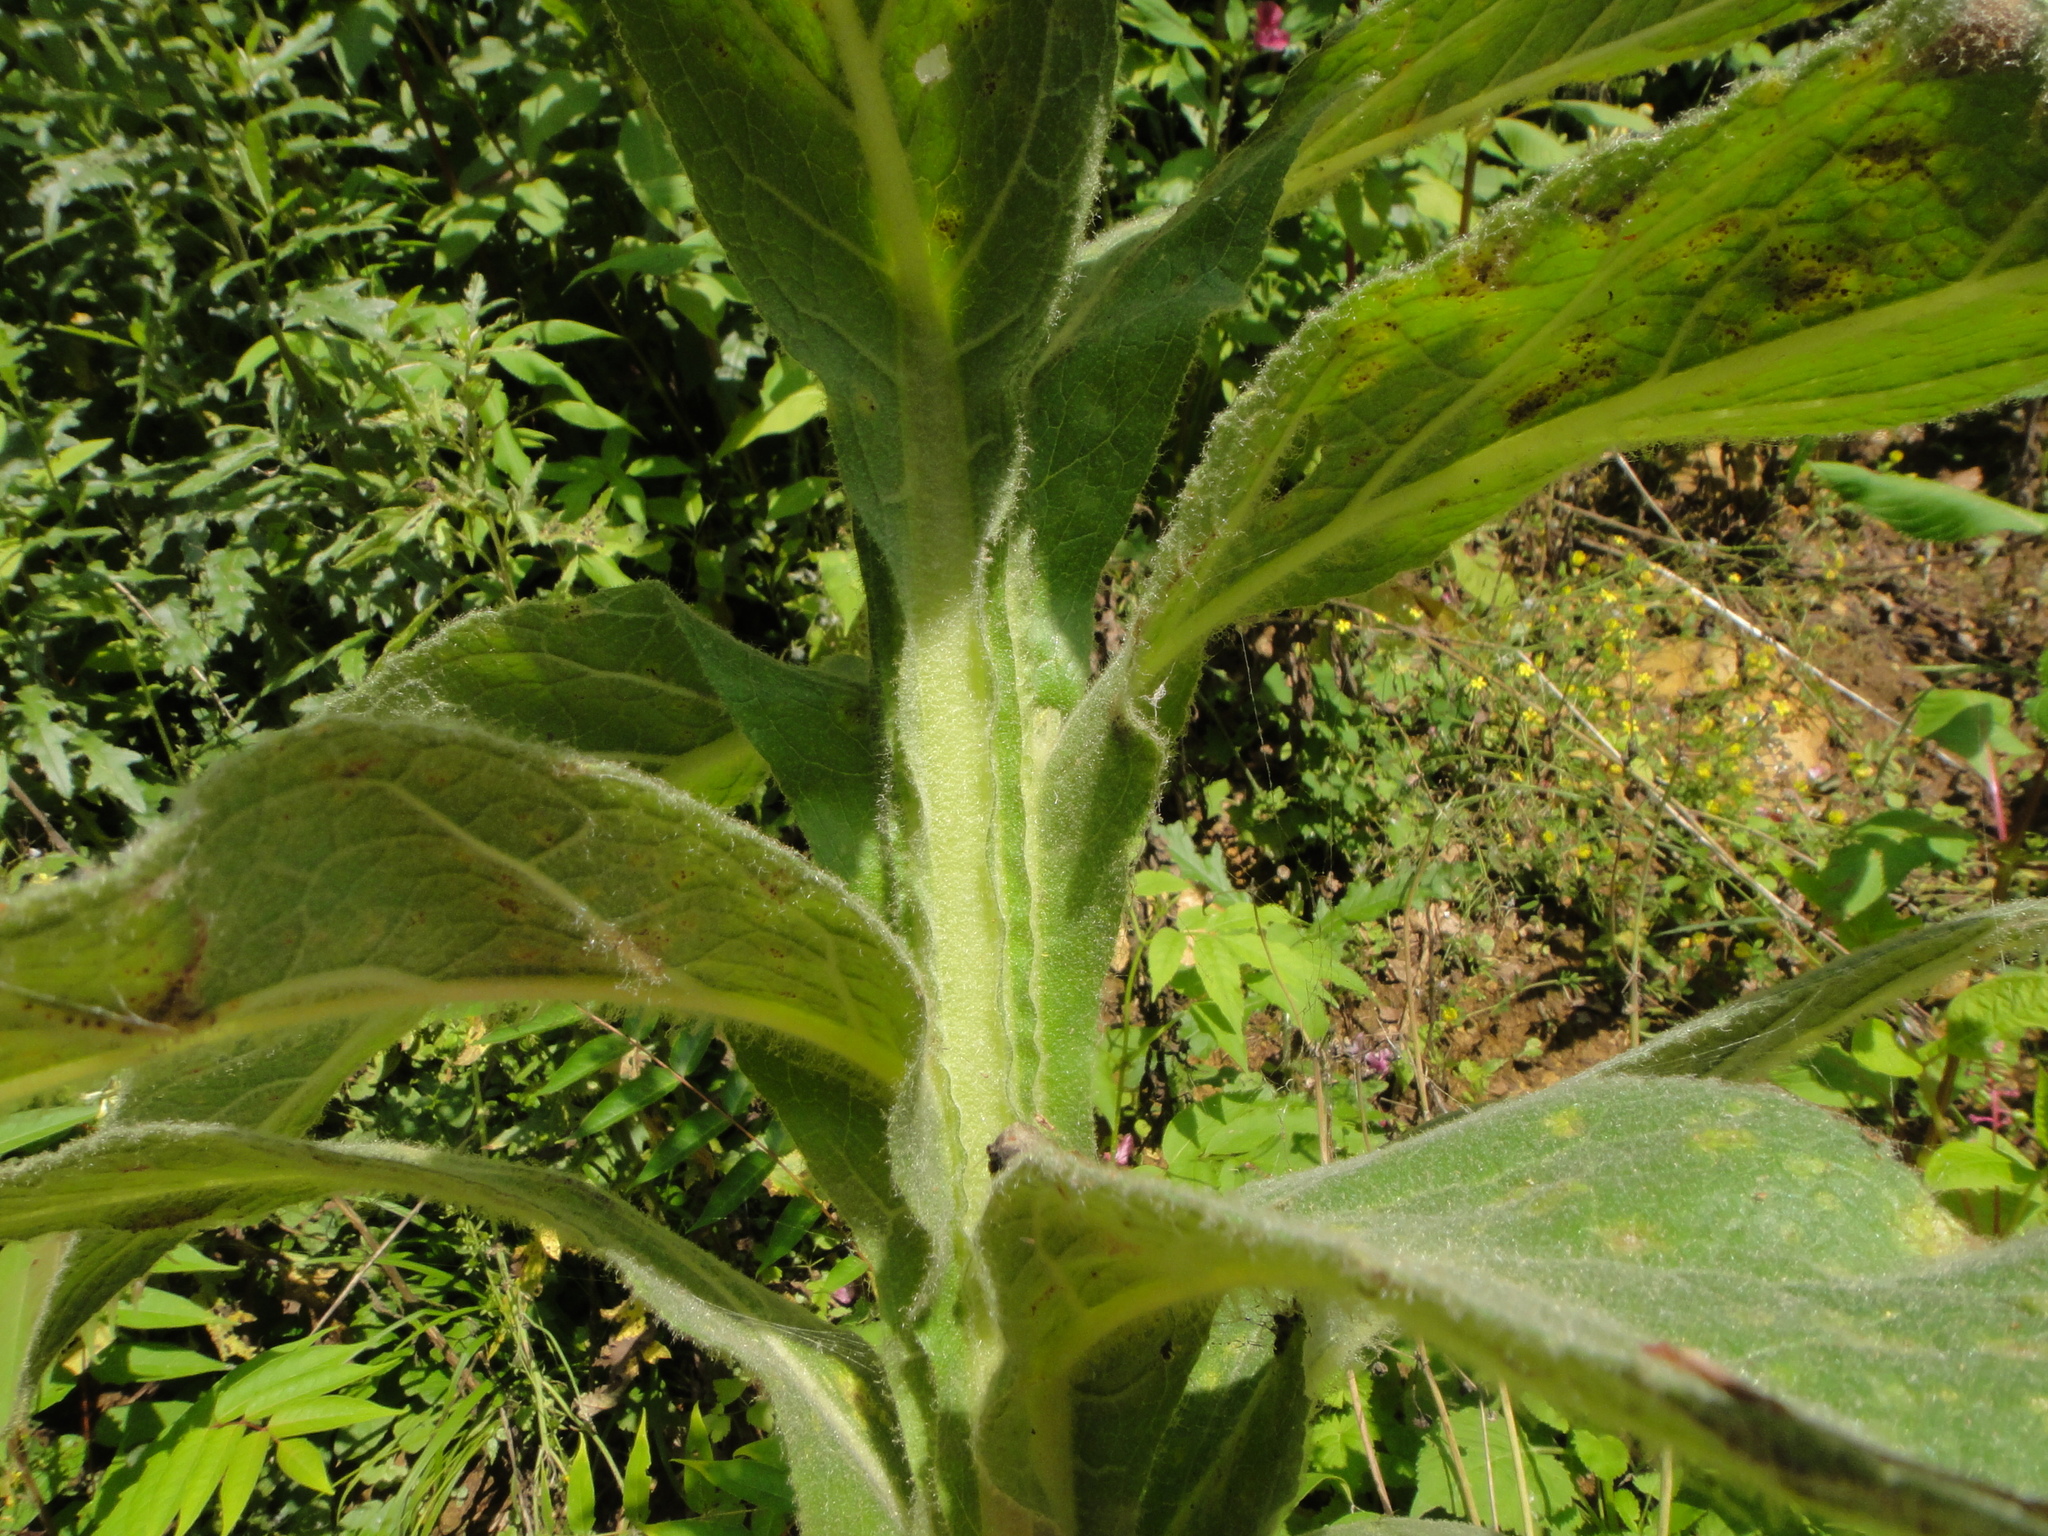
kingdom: Plantae
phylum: Tracheophyta
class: Magnoliopsida
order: Lamiales
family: Scrophulariaceae
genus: Verbascum
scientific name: Verbascum densiflorum
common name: Dense-flowered mullein
